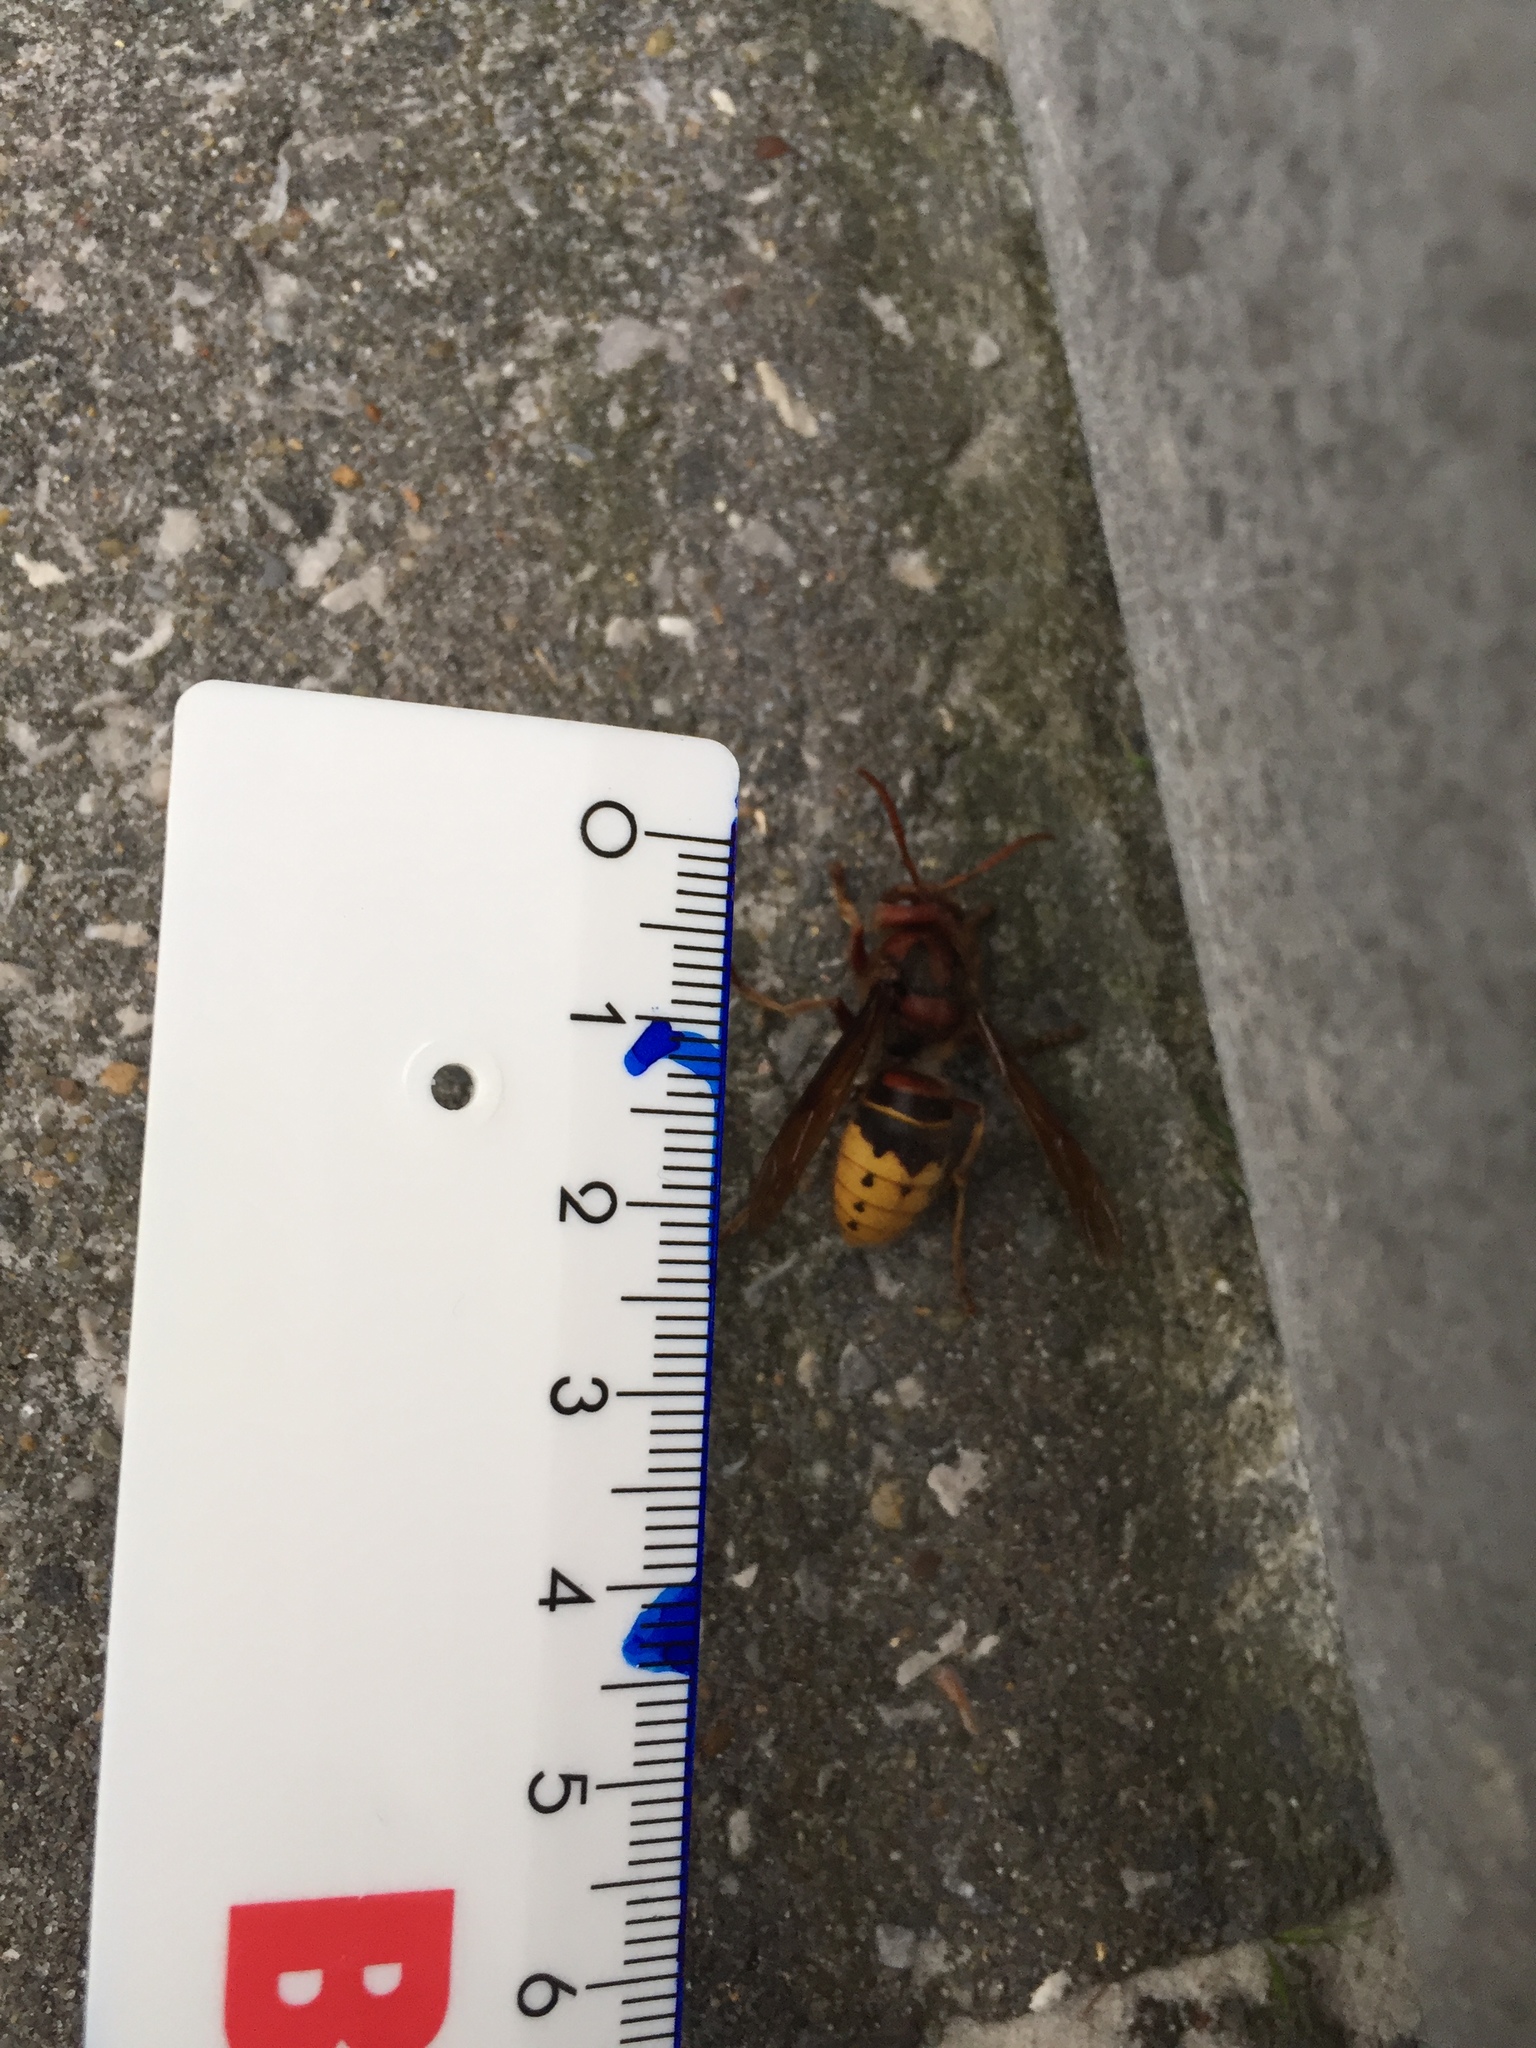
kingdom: Animalia
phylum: Arthropoda
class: Insecta
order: Hymenoptera
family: Vespidae
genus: Vespa
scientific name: Vespa crabro
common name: Hornet
